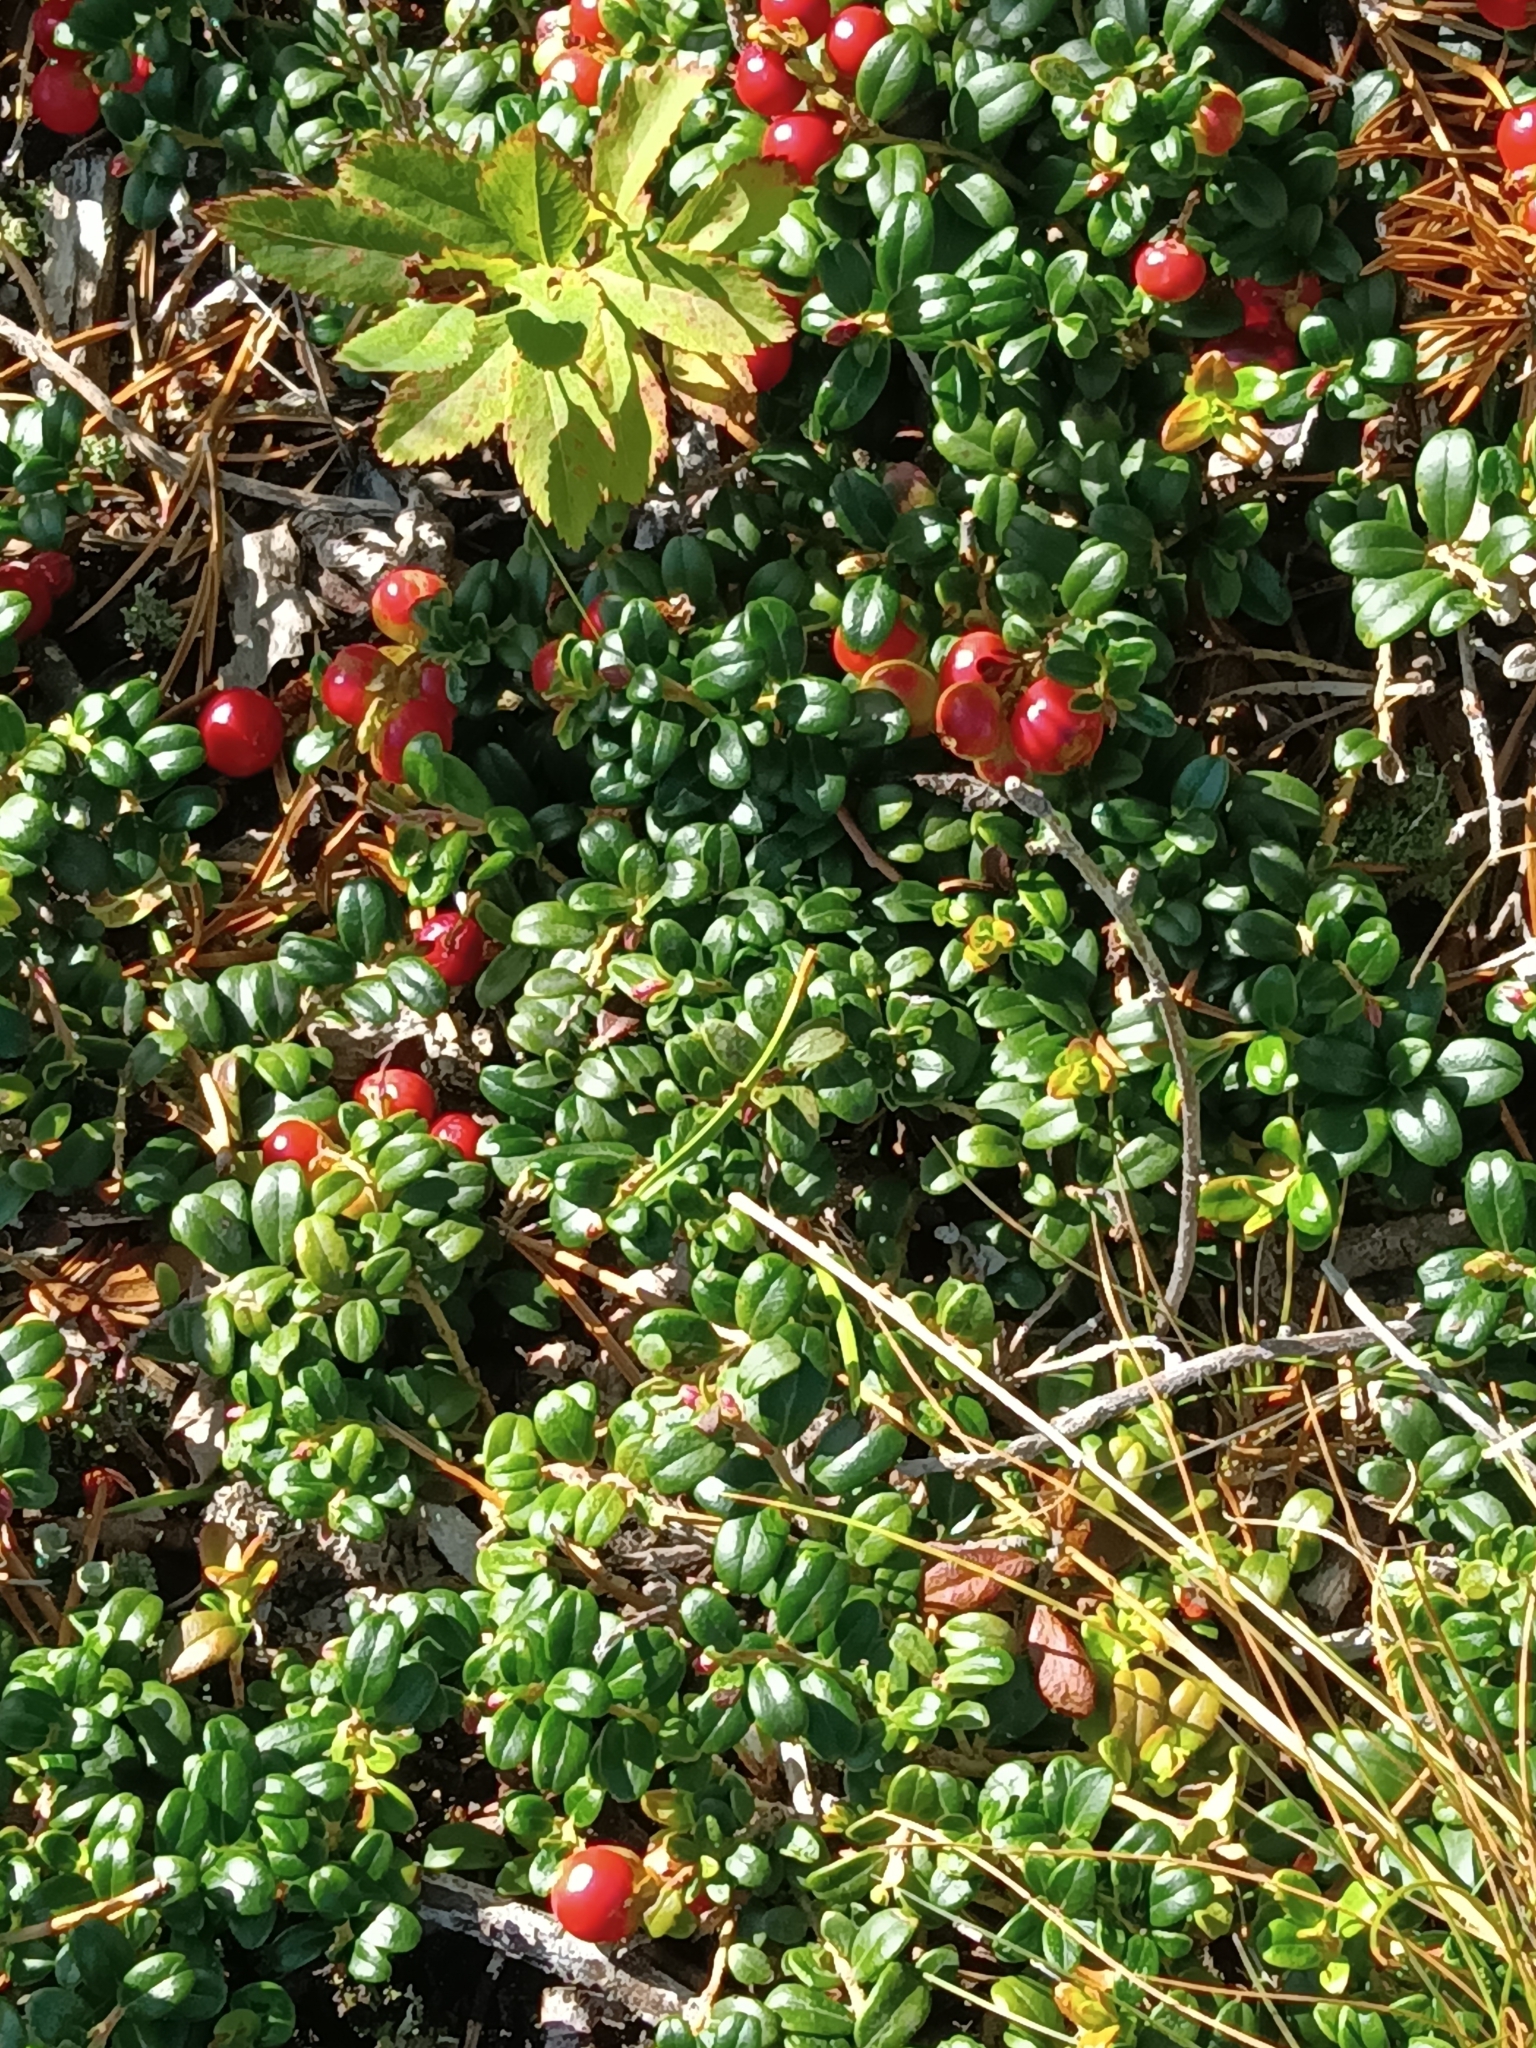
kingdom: Plantae
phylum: Tracheophyta
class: Magnoliopsida
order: Ericales
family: Ericaceae
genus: Vaccinium
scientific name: Vaccinium vitis-idaea
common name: Cowberry
